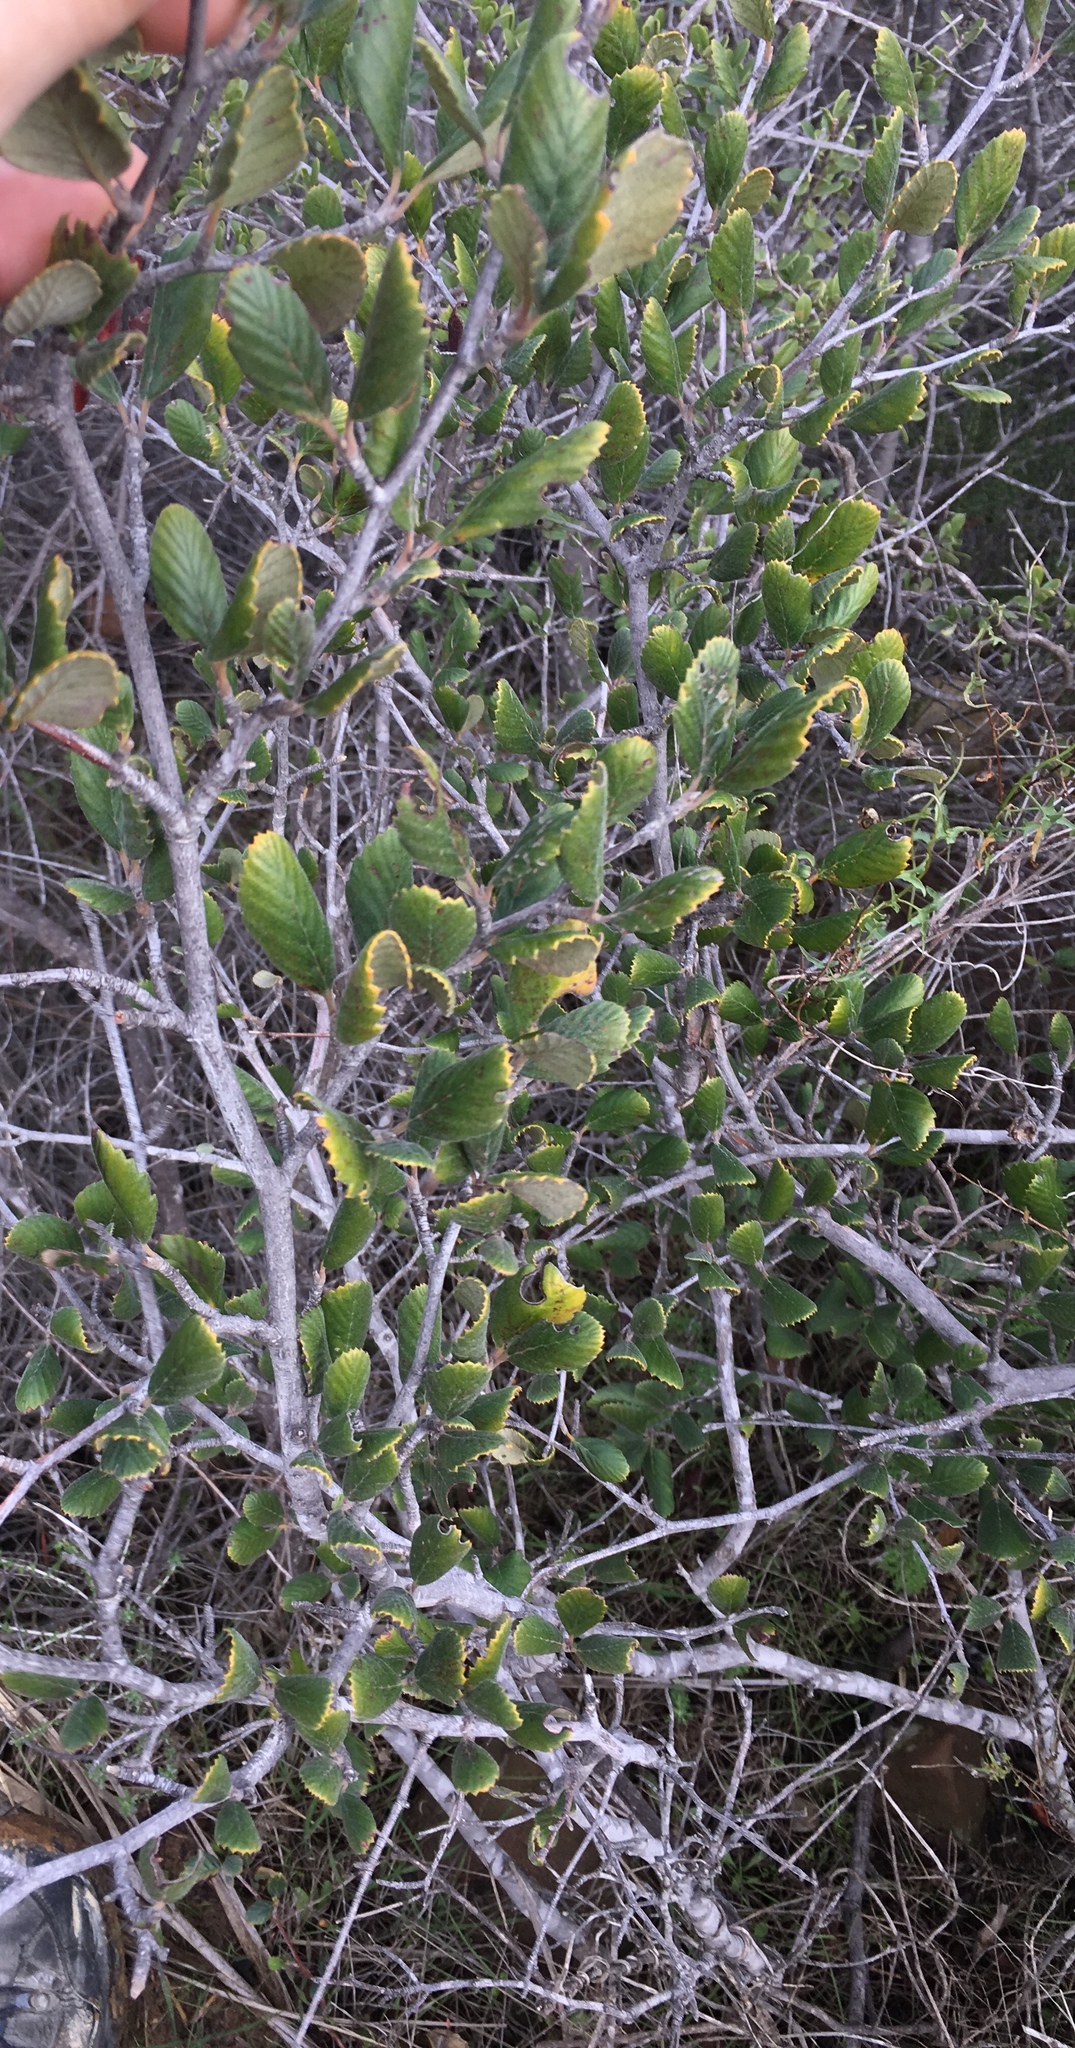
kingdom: Plantae
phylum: Tracheophyta
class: Magnoliopsida
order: Rosales
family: Rosaceae
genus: Cercocarpus
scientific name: Cercocarpus betuloides
